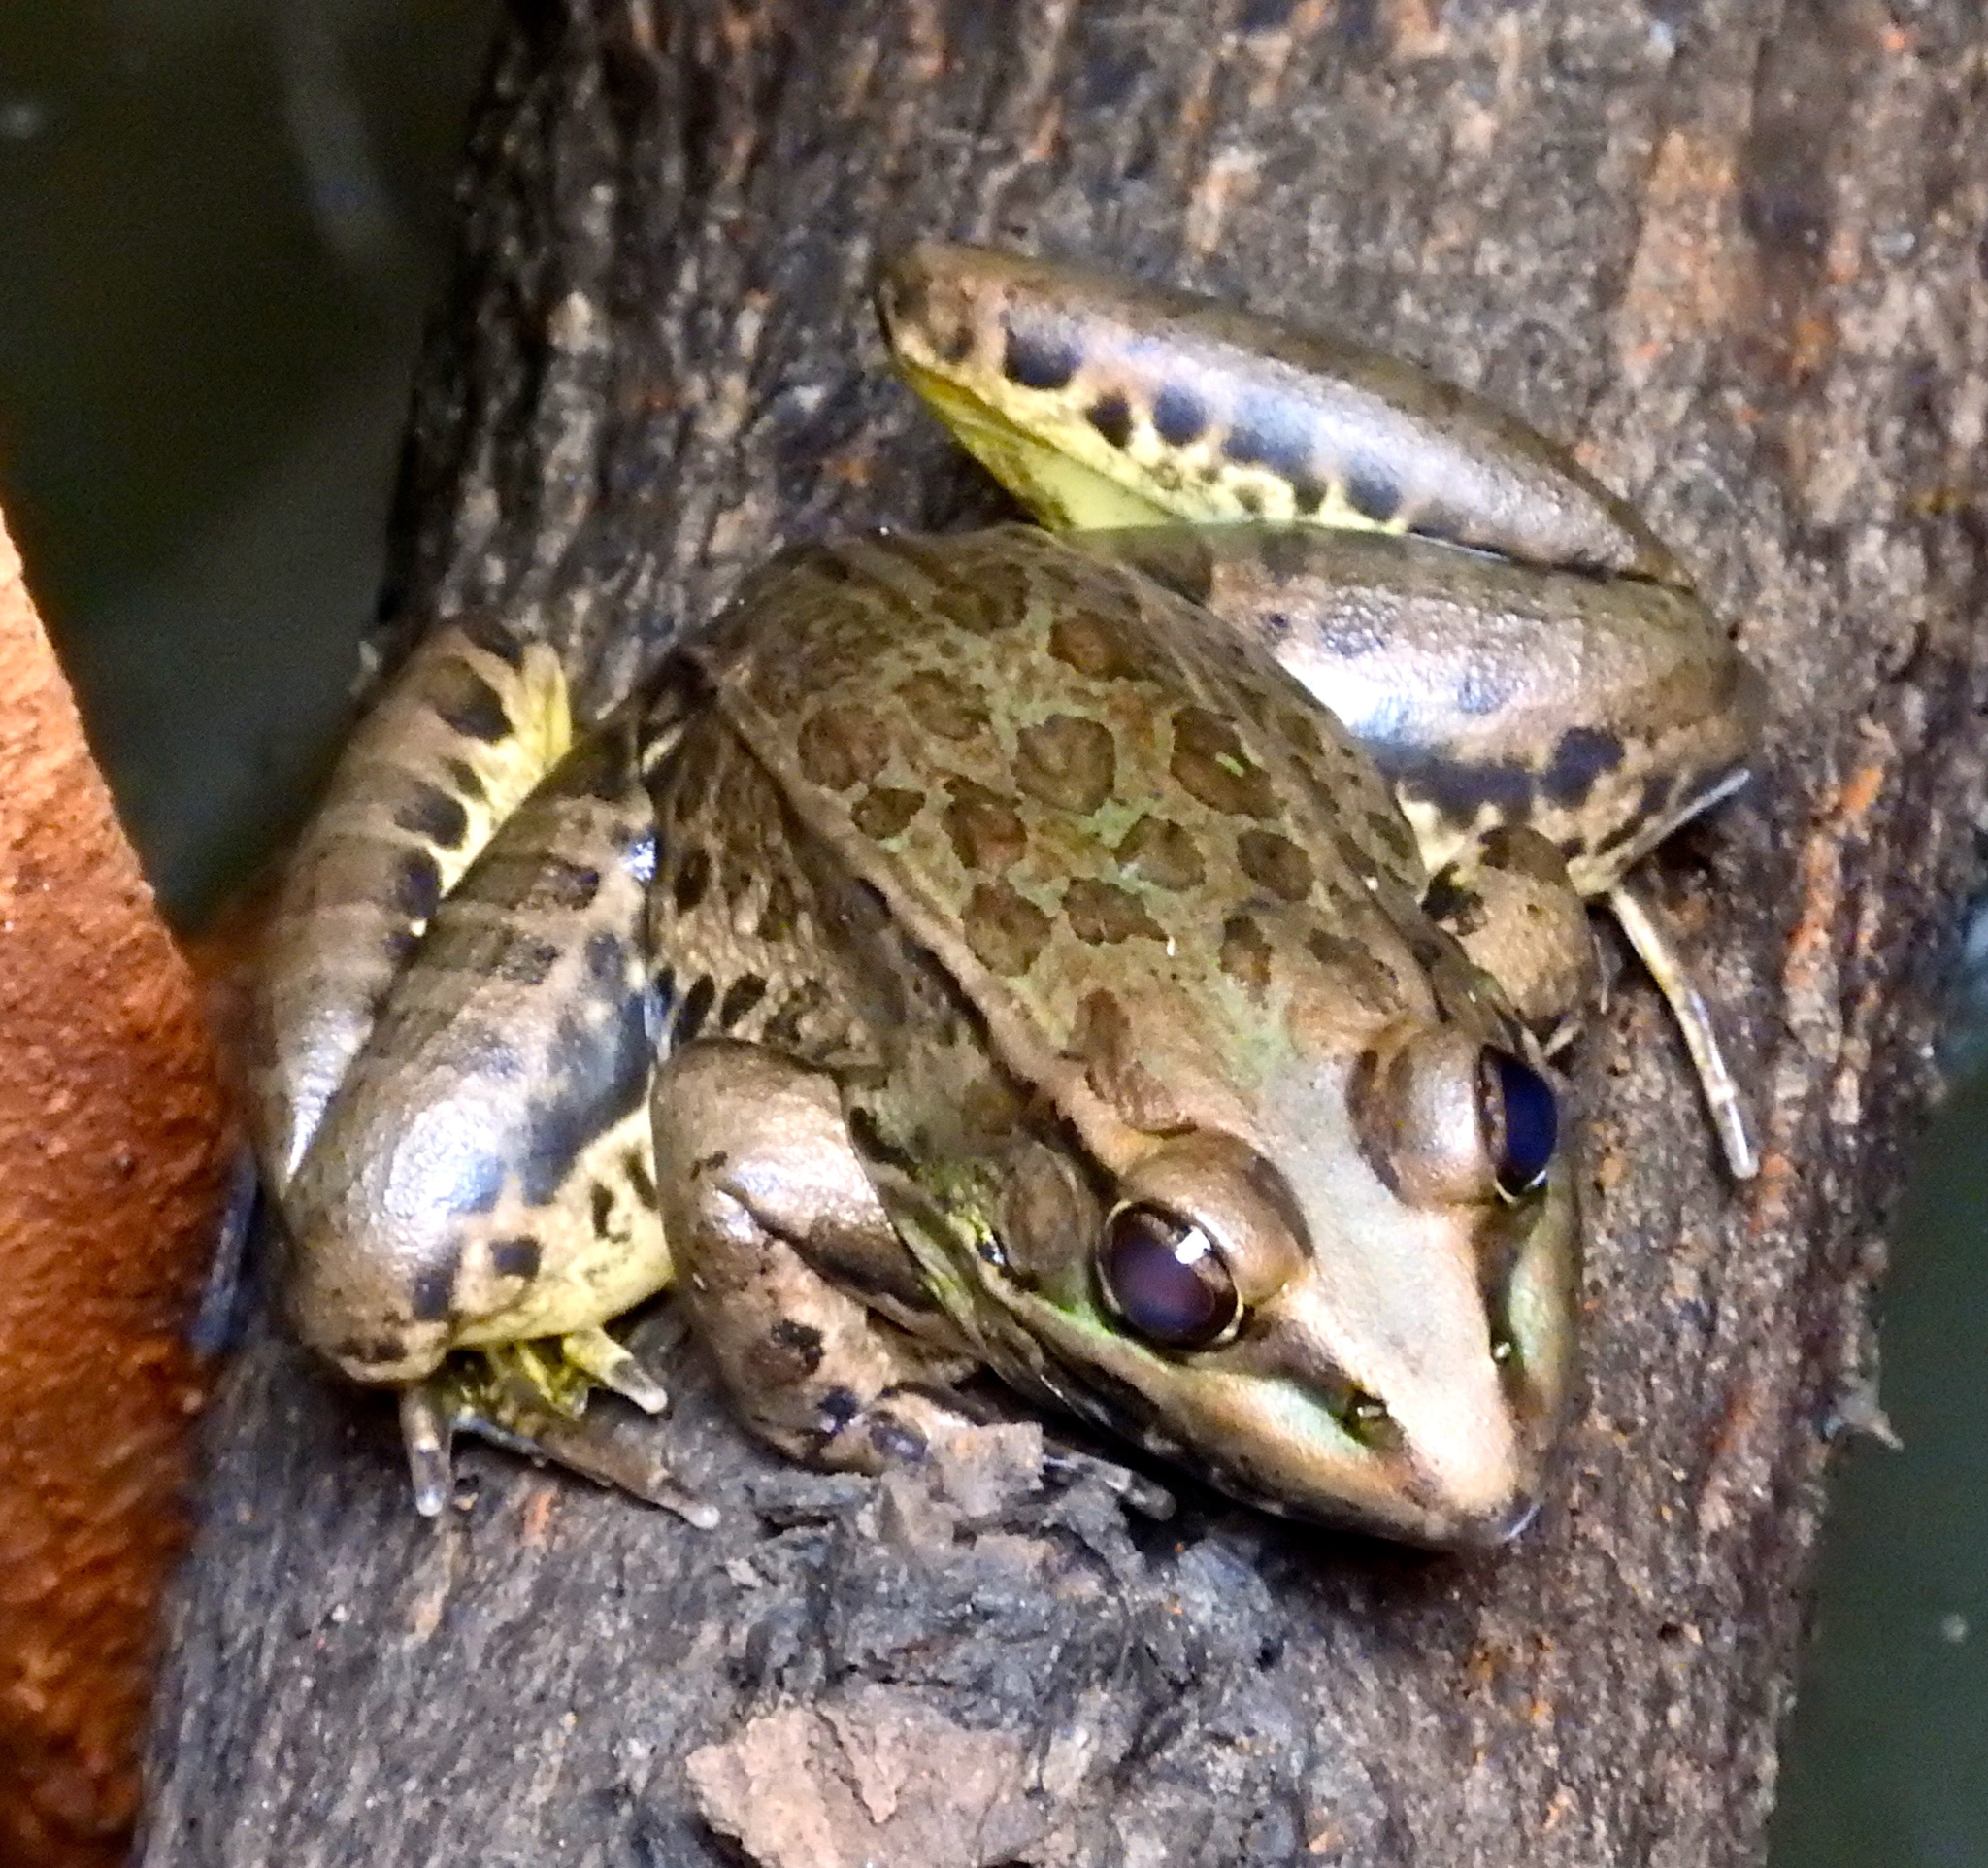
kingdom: Animalia
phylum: Chordata
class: Amphibia
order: Anura
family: Ranidae
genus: Lithobates
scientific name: Lithobates magnaocularis
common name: Northwest mexico leopard frog
